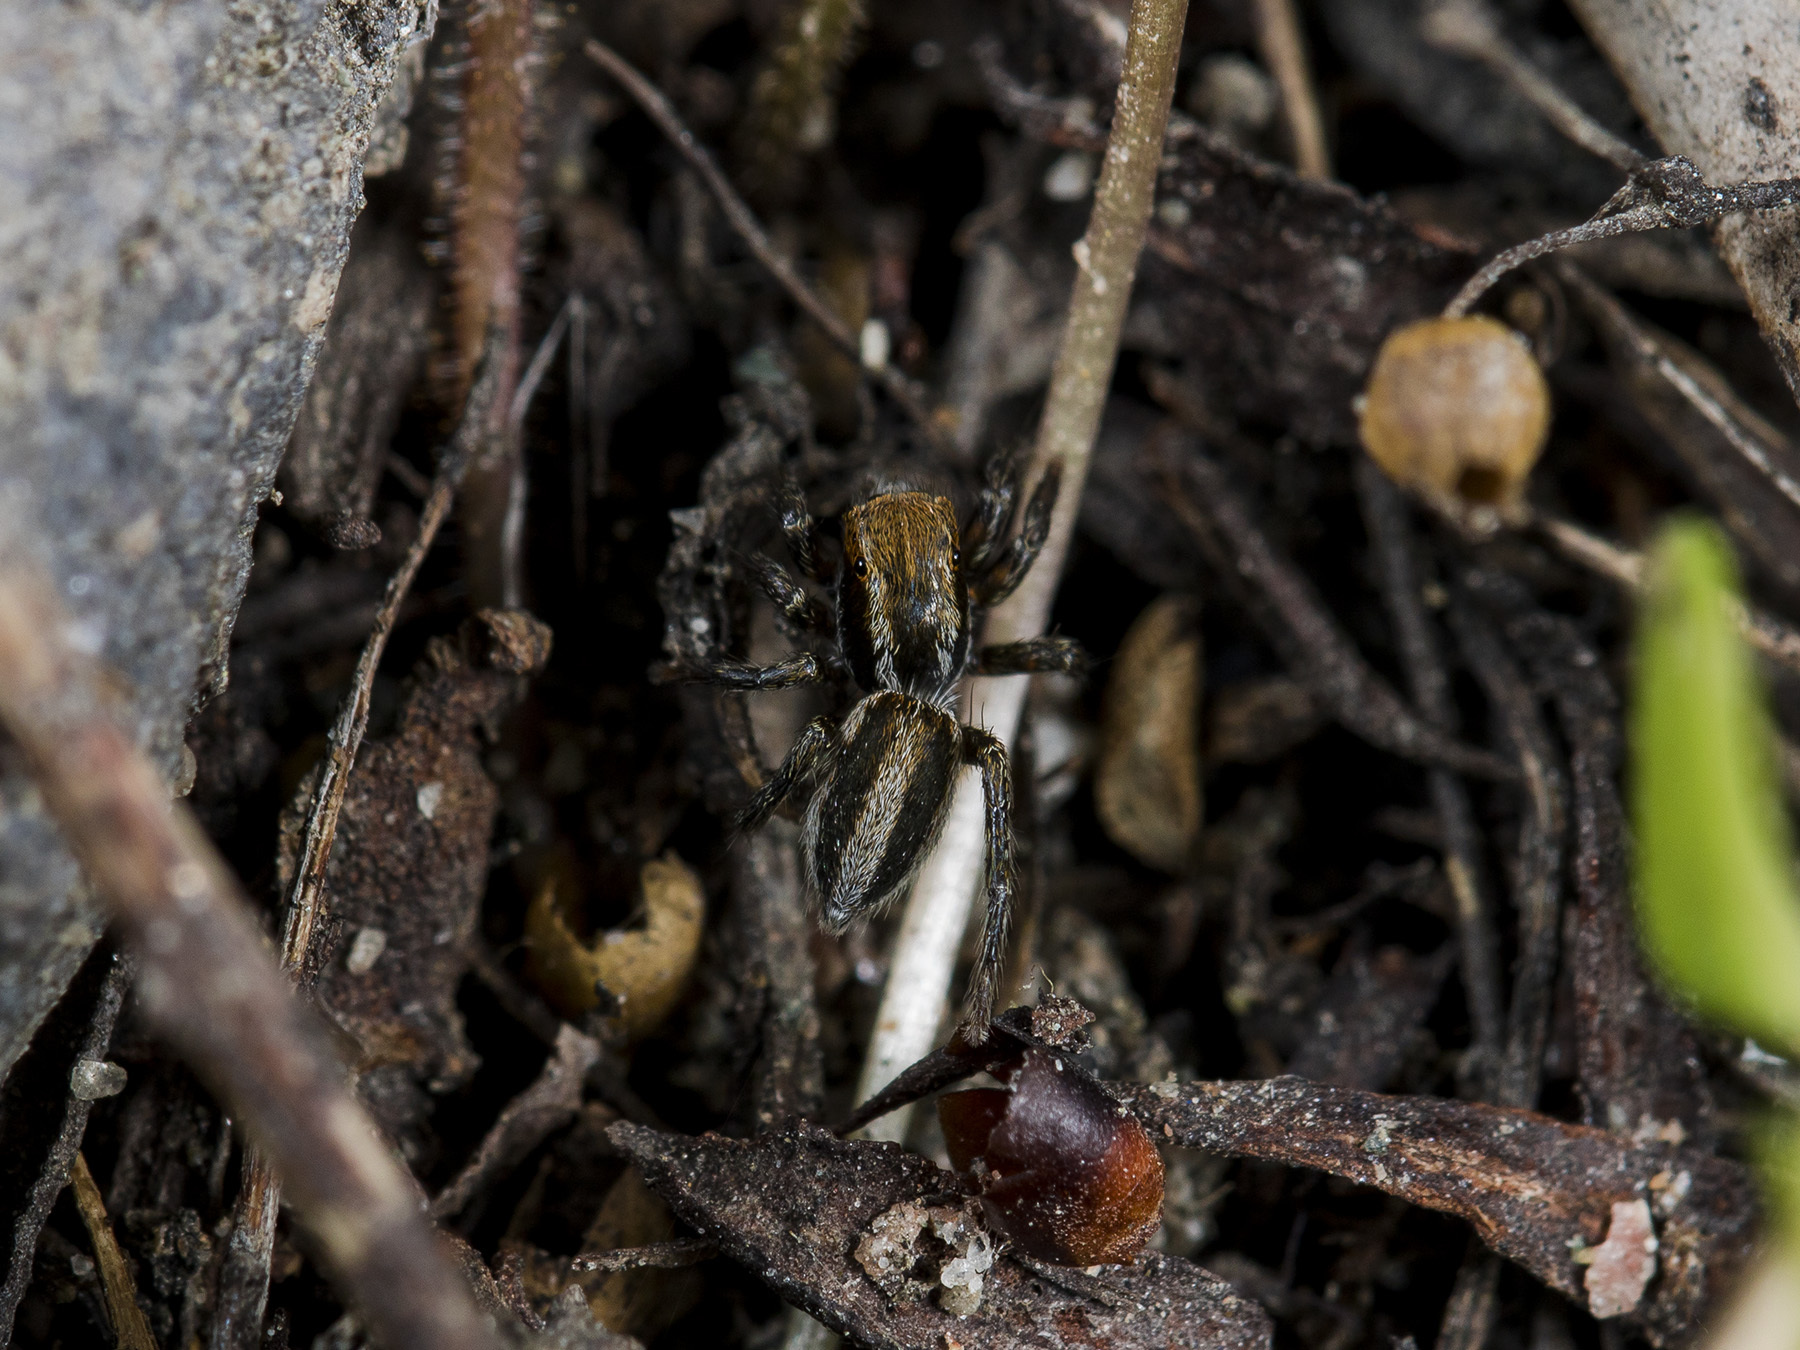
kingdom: Animalia
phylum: Arthropoda
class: Arachnida
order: Araneae
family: Salticidae
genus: Phlegra
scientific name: Phlegra fasciata
